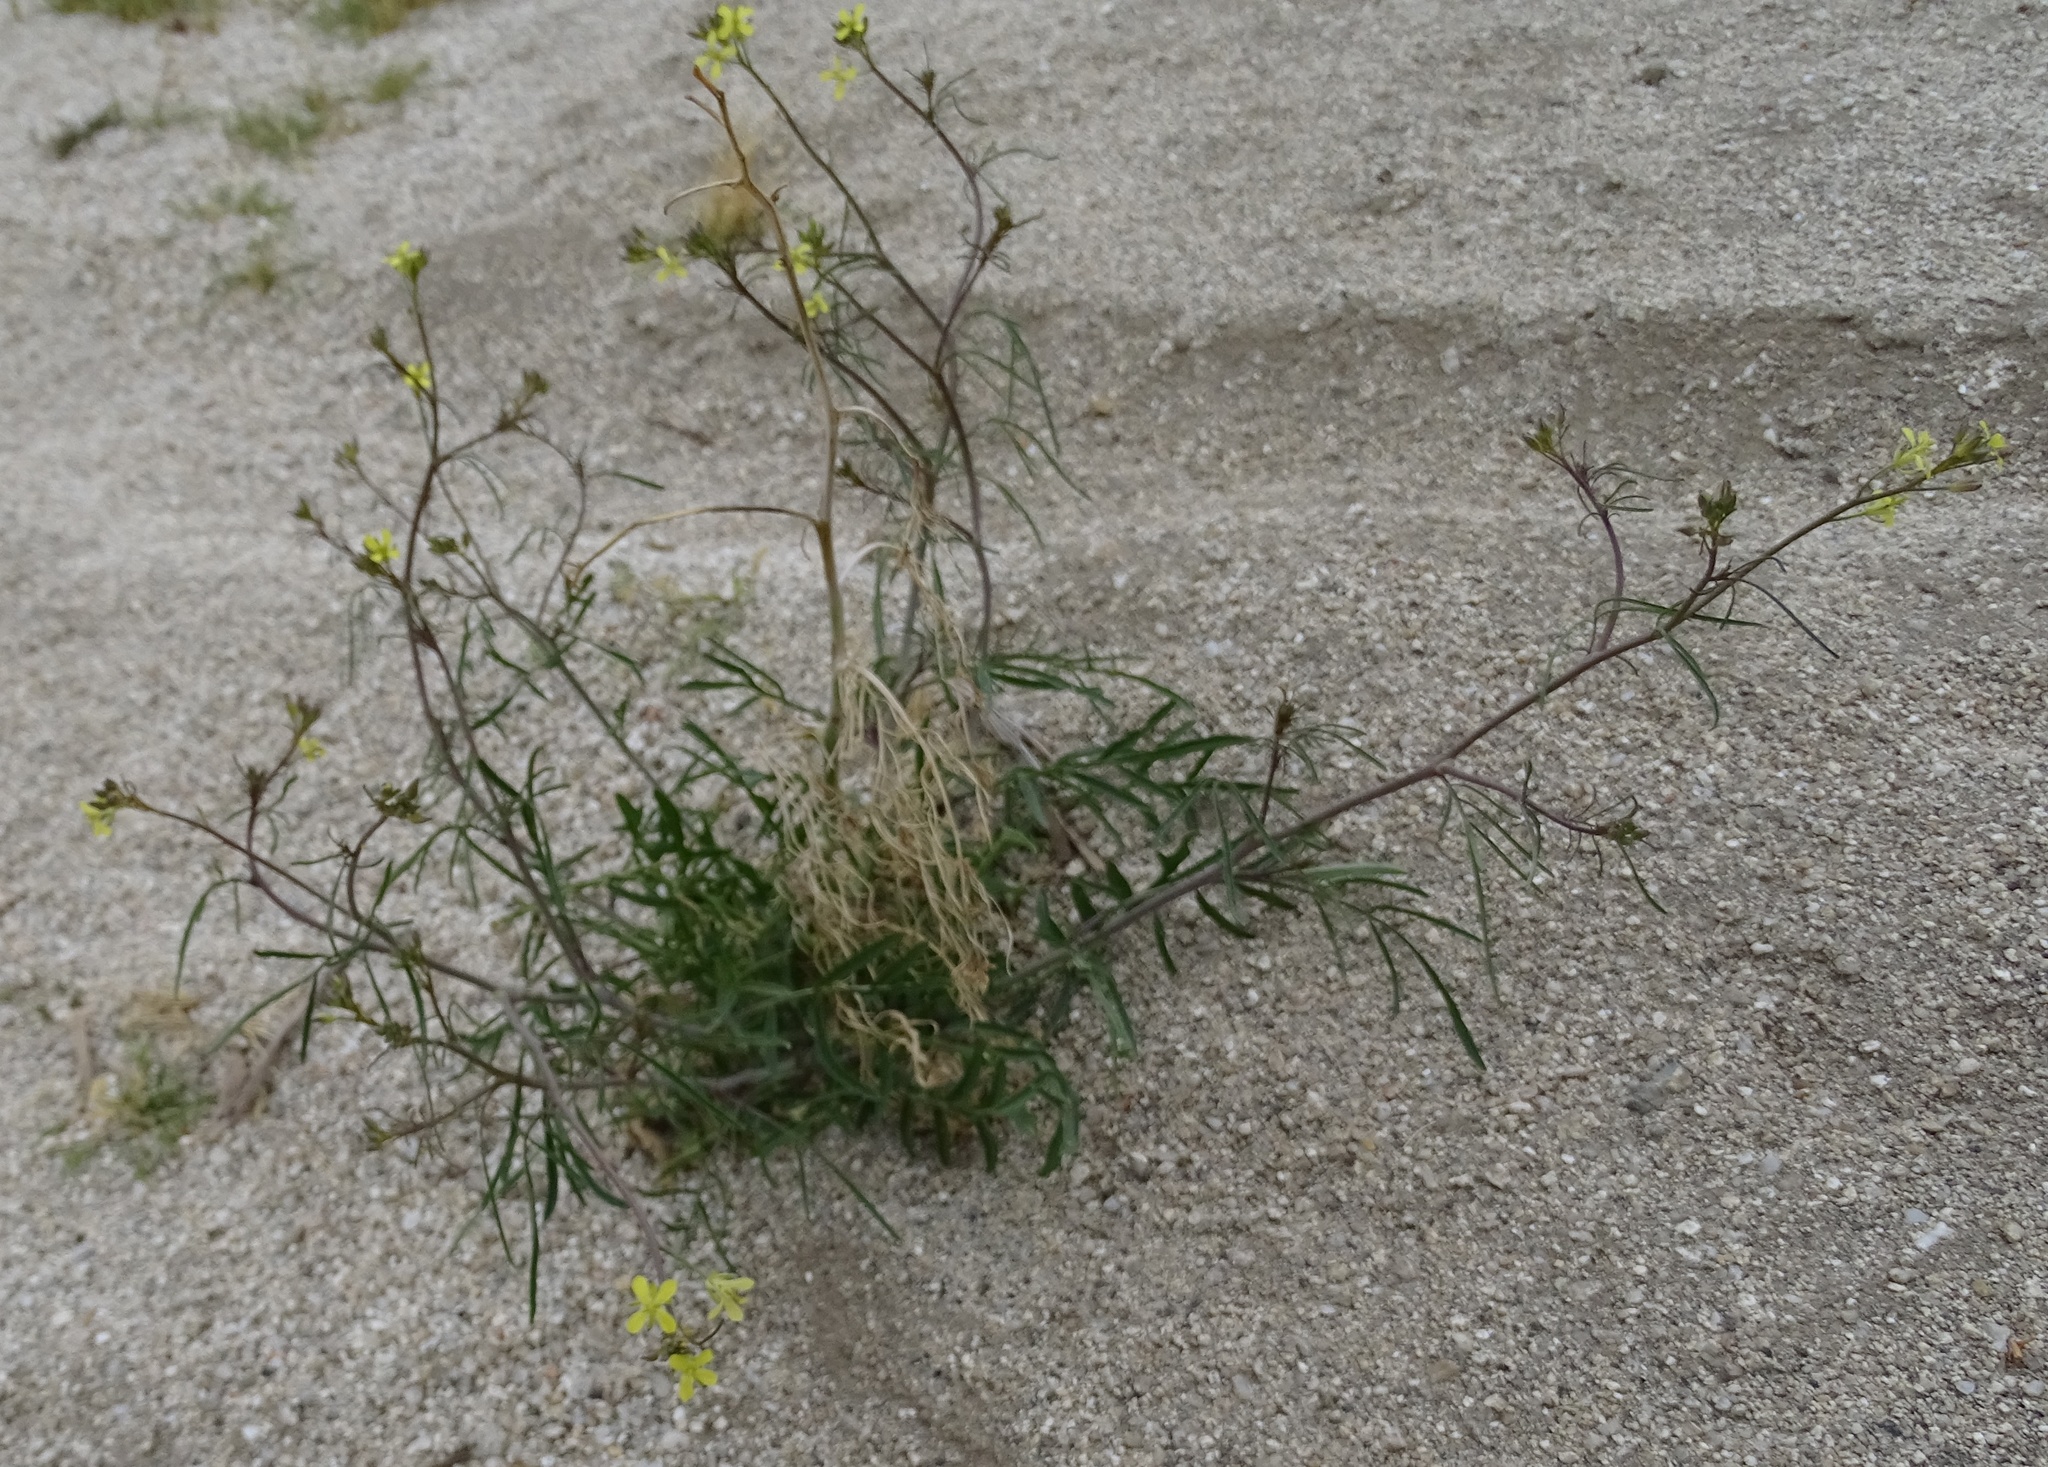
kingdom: Plantae
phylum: Tracheophyta
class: Magnoliopsida
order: Brassicales
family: Brassicaceae
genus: Sisymbrium
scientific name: Sisymbrium orientale
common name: Eastern rocket
